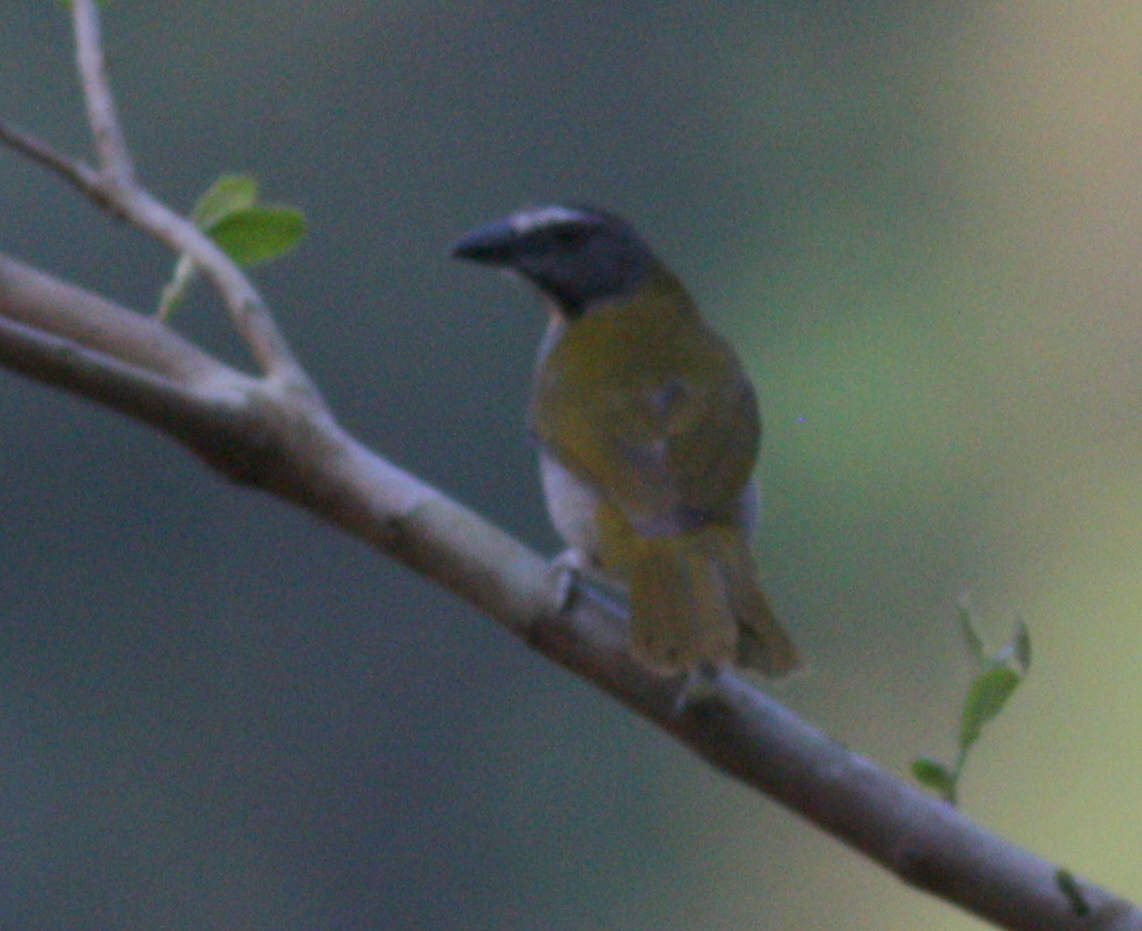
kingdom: Animalia
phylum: Chordata
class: Aves
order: Passeriformes
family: Thraupidae
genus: Saltator
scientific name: Saltator maximus
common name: Buff-throated saltator
